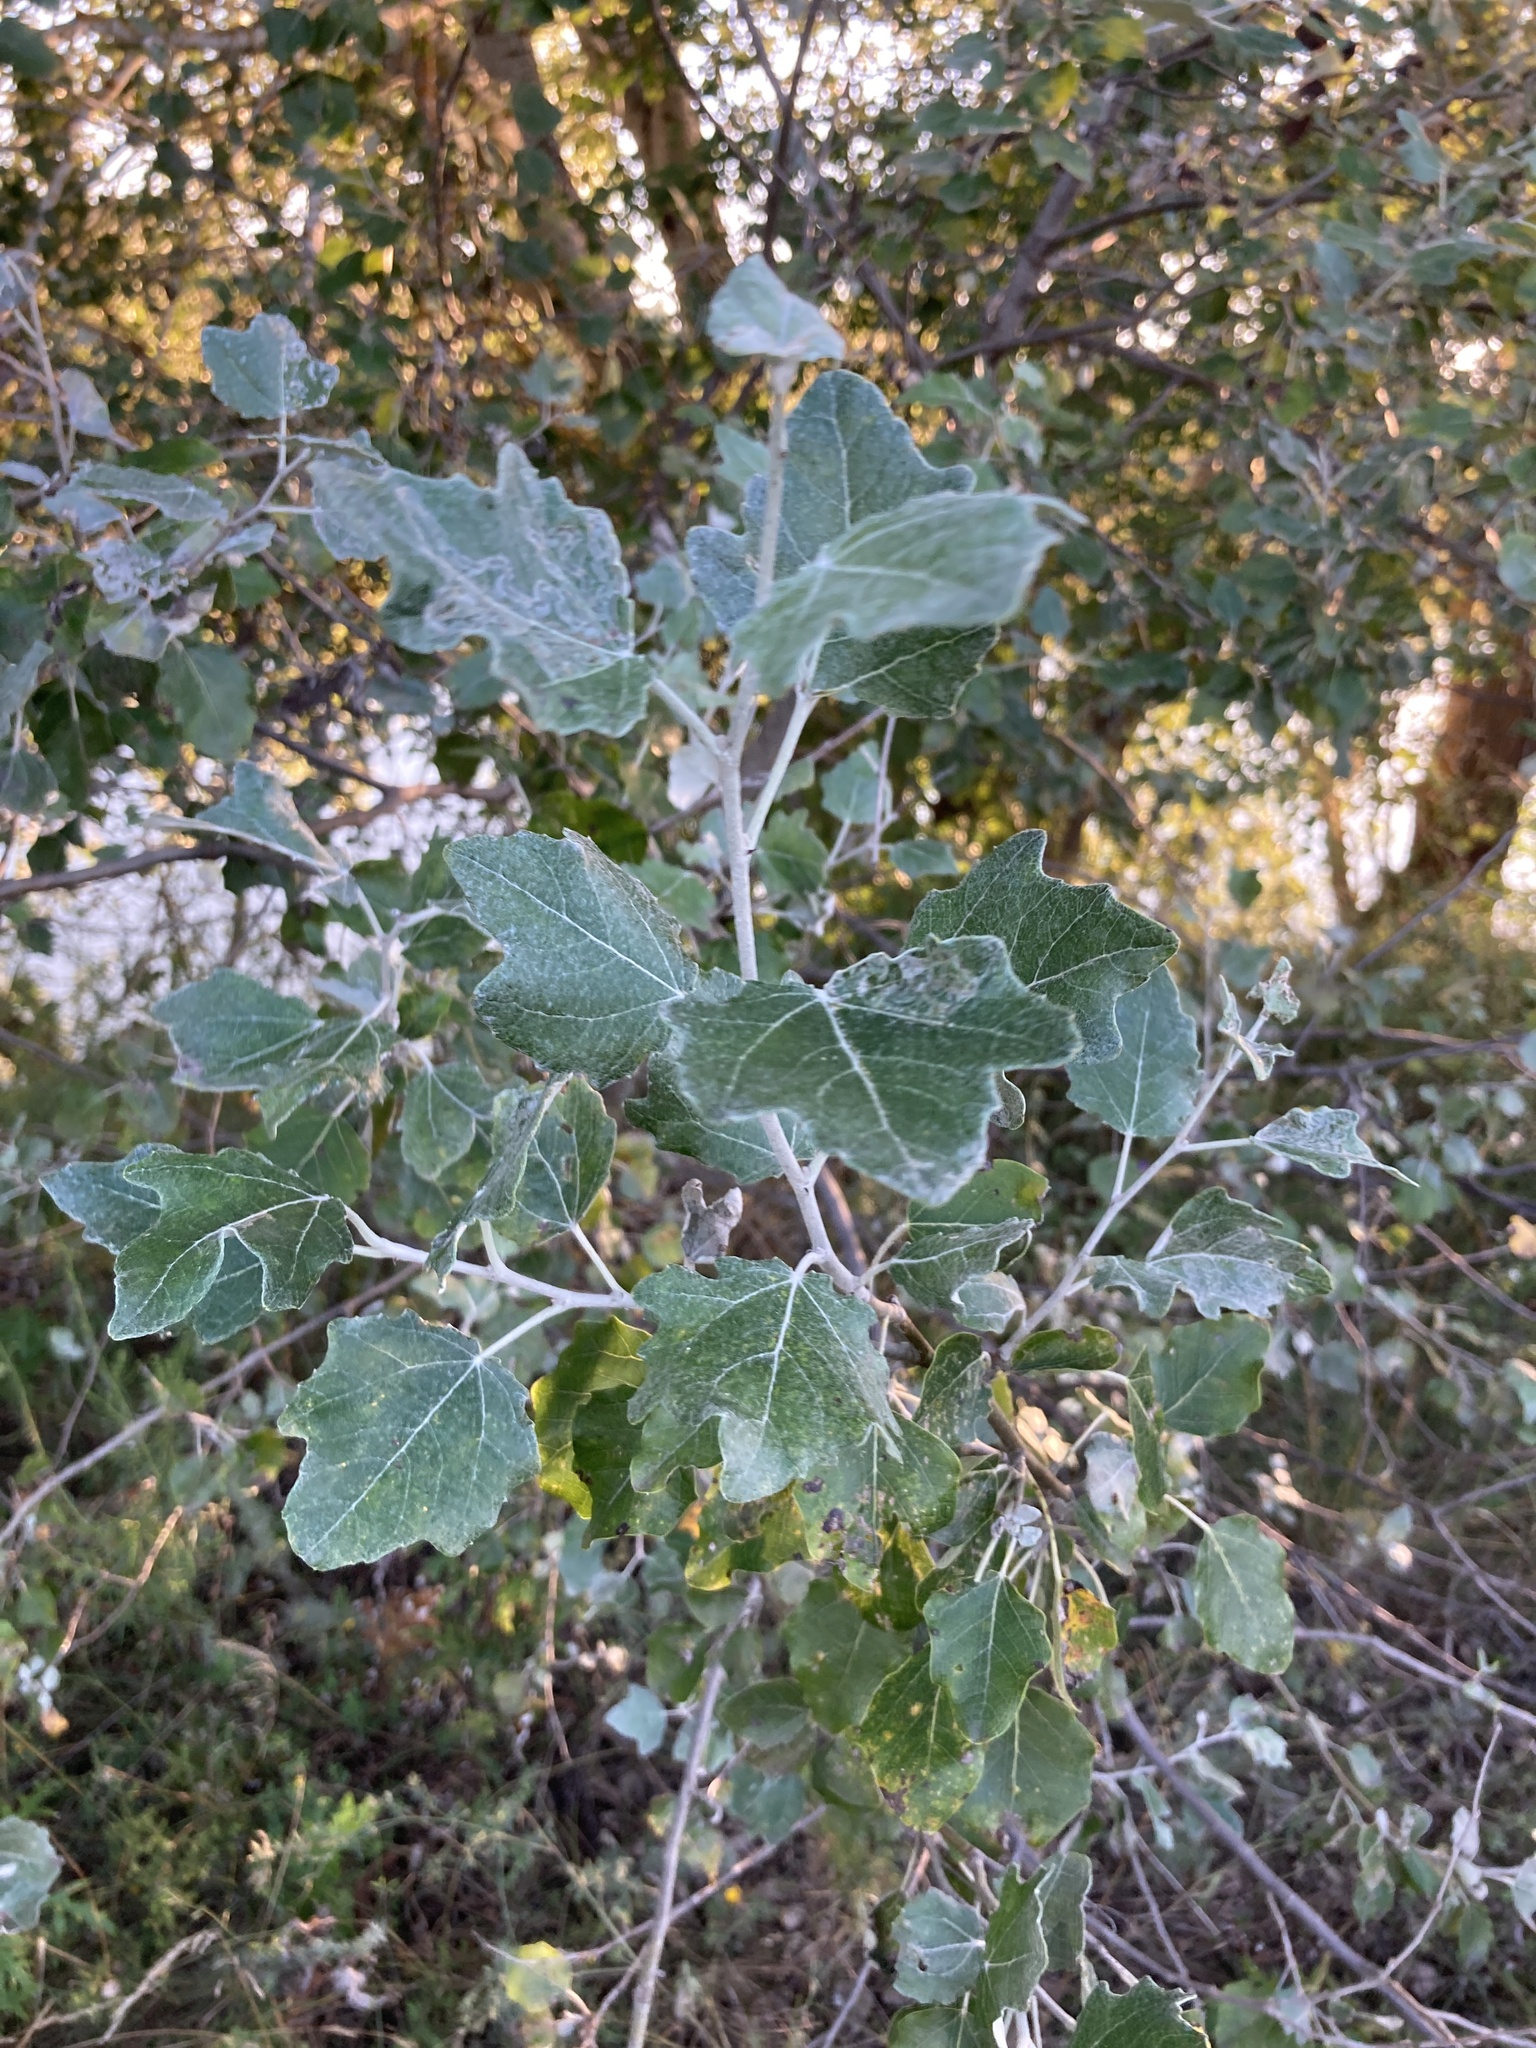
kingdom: Plantae
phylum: Tracheophyta
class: Magnoliopsida
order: Malpighiales
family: Salicaceae
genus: Populus
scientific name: Populus alba
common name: White poplar
